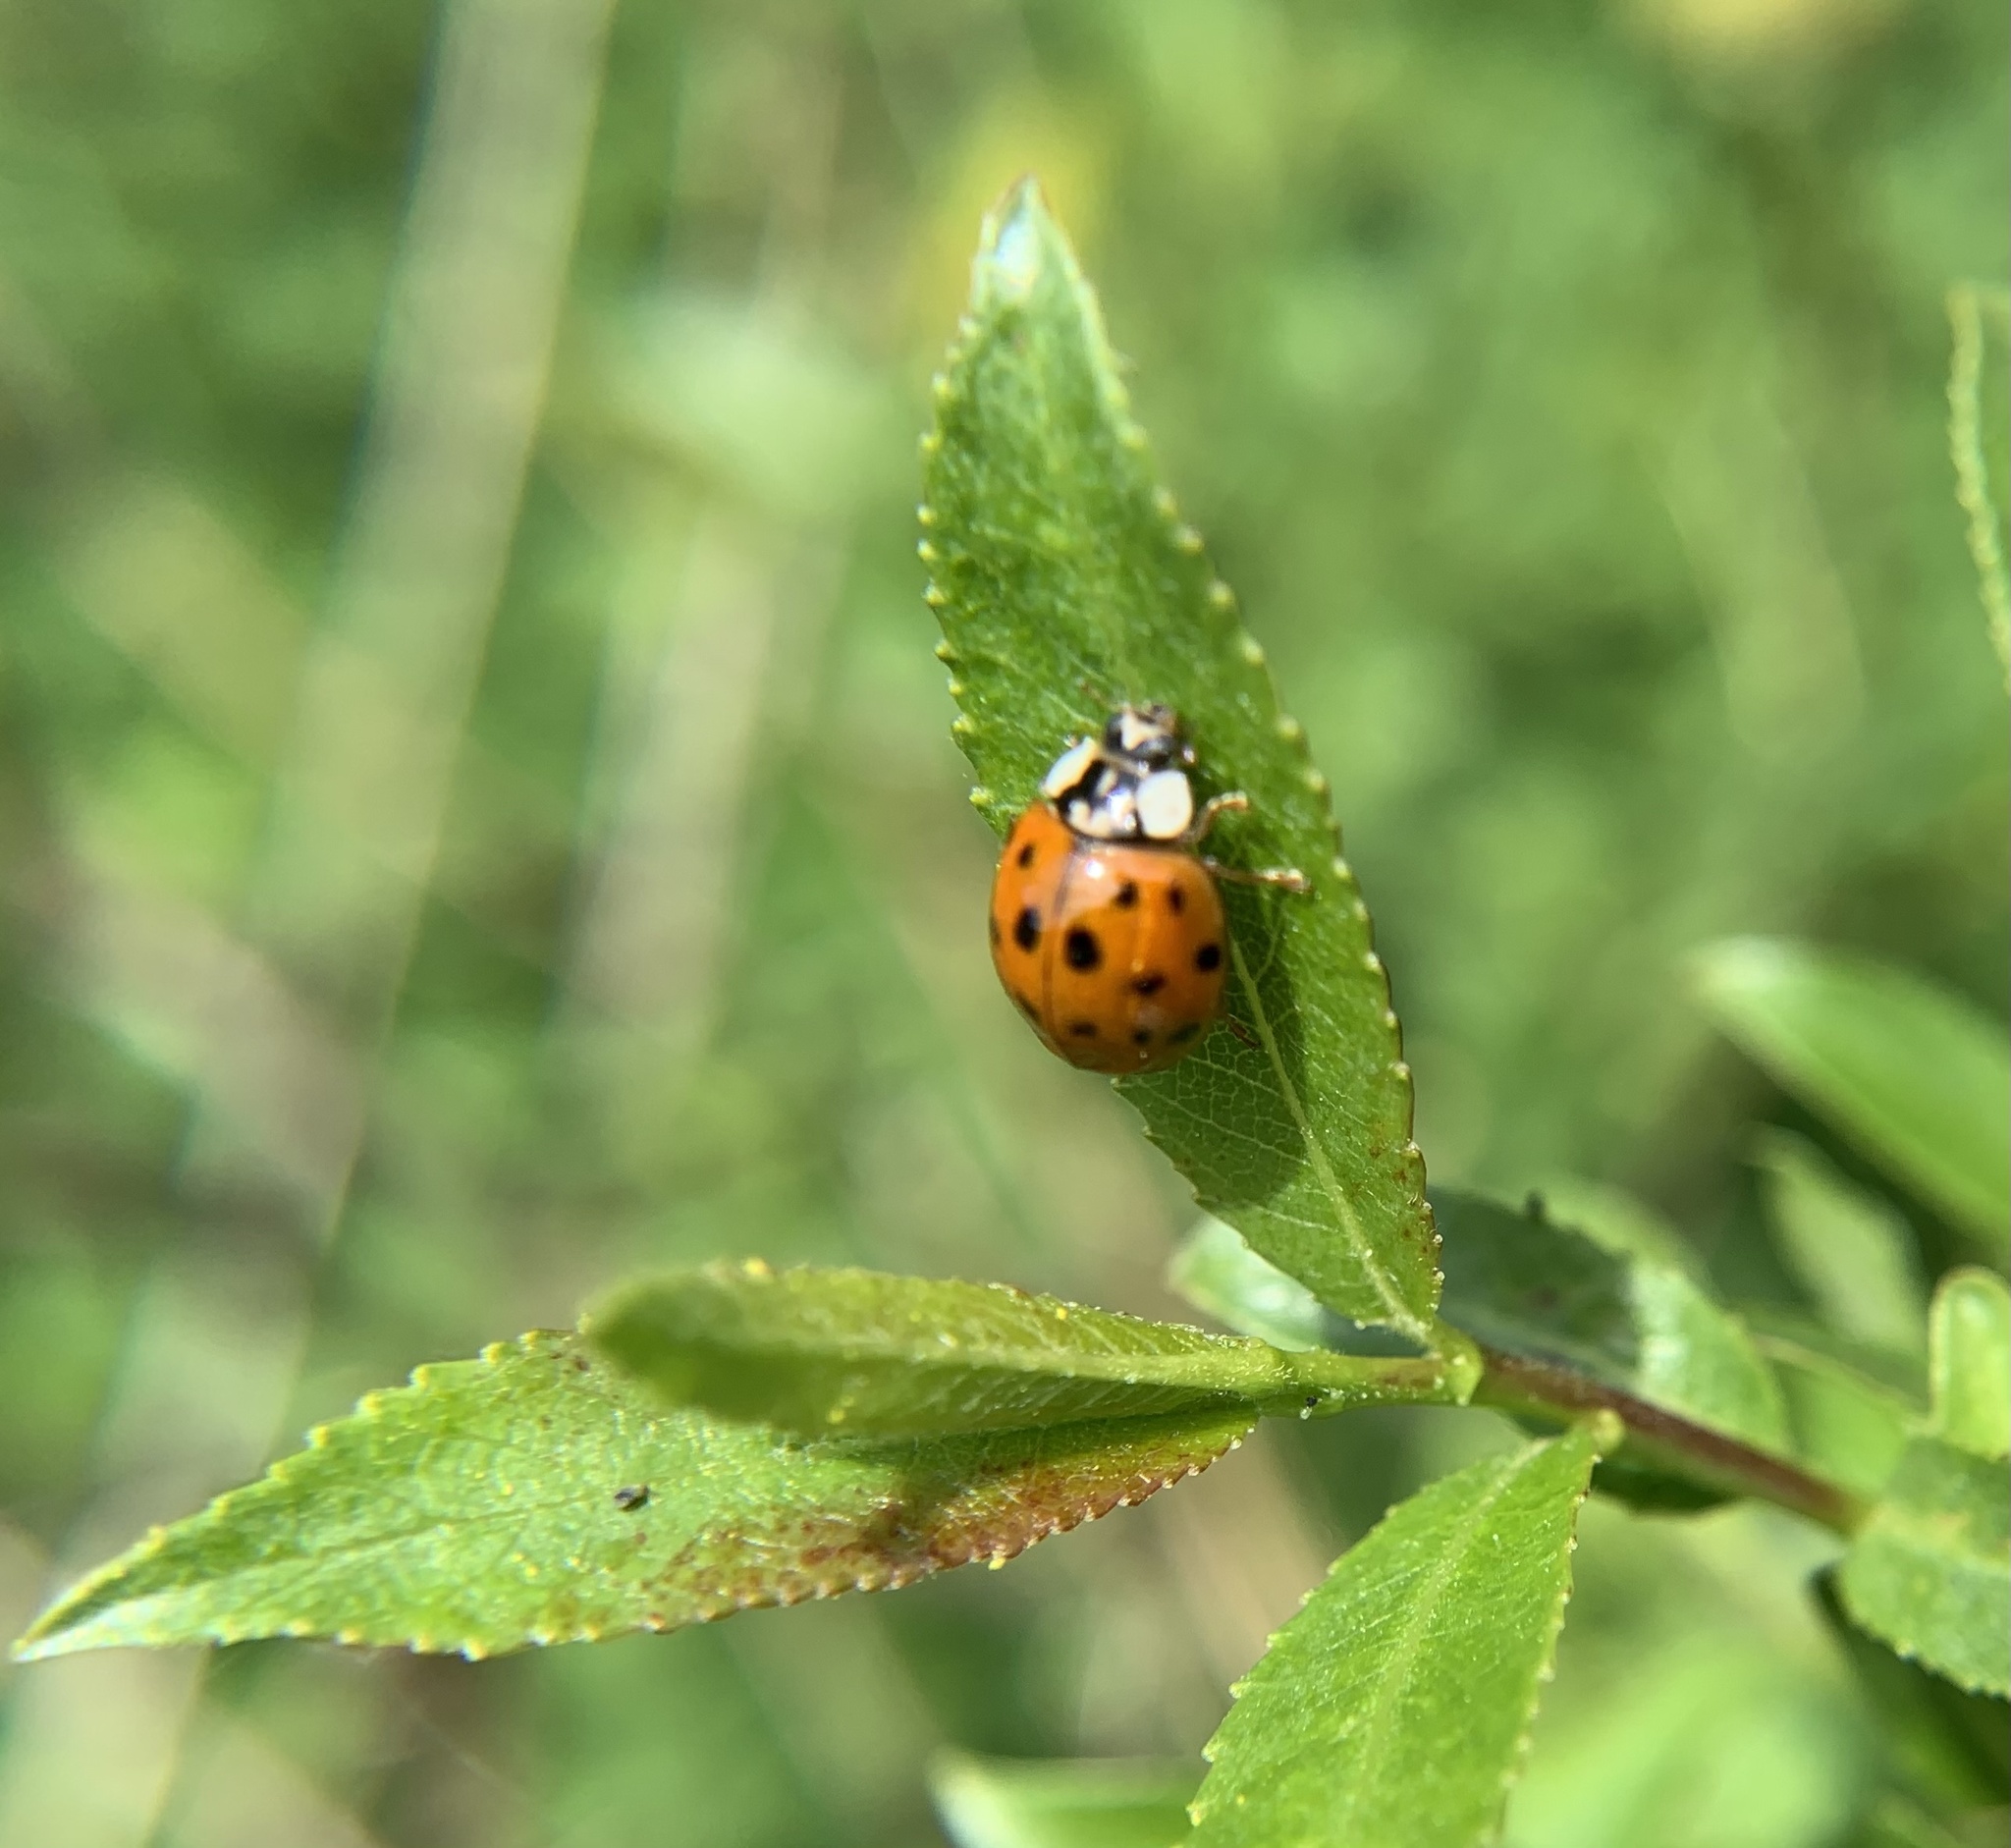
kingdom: Animalia
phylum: Arthropoda
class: Insecta
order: Coleoptera
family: Coccinellidae
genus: Harmonia
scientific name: Harmonia axyridis
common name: Harlequin ladybird
